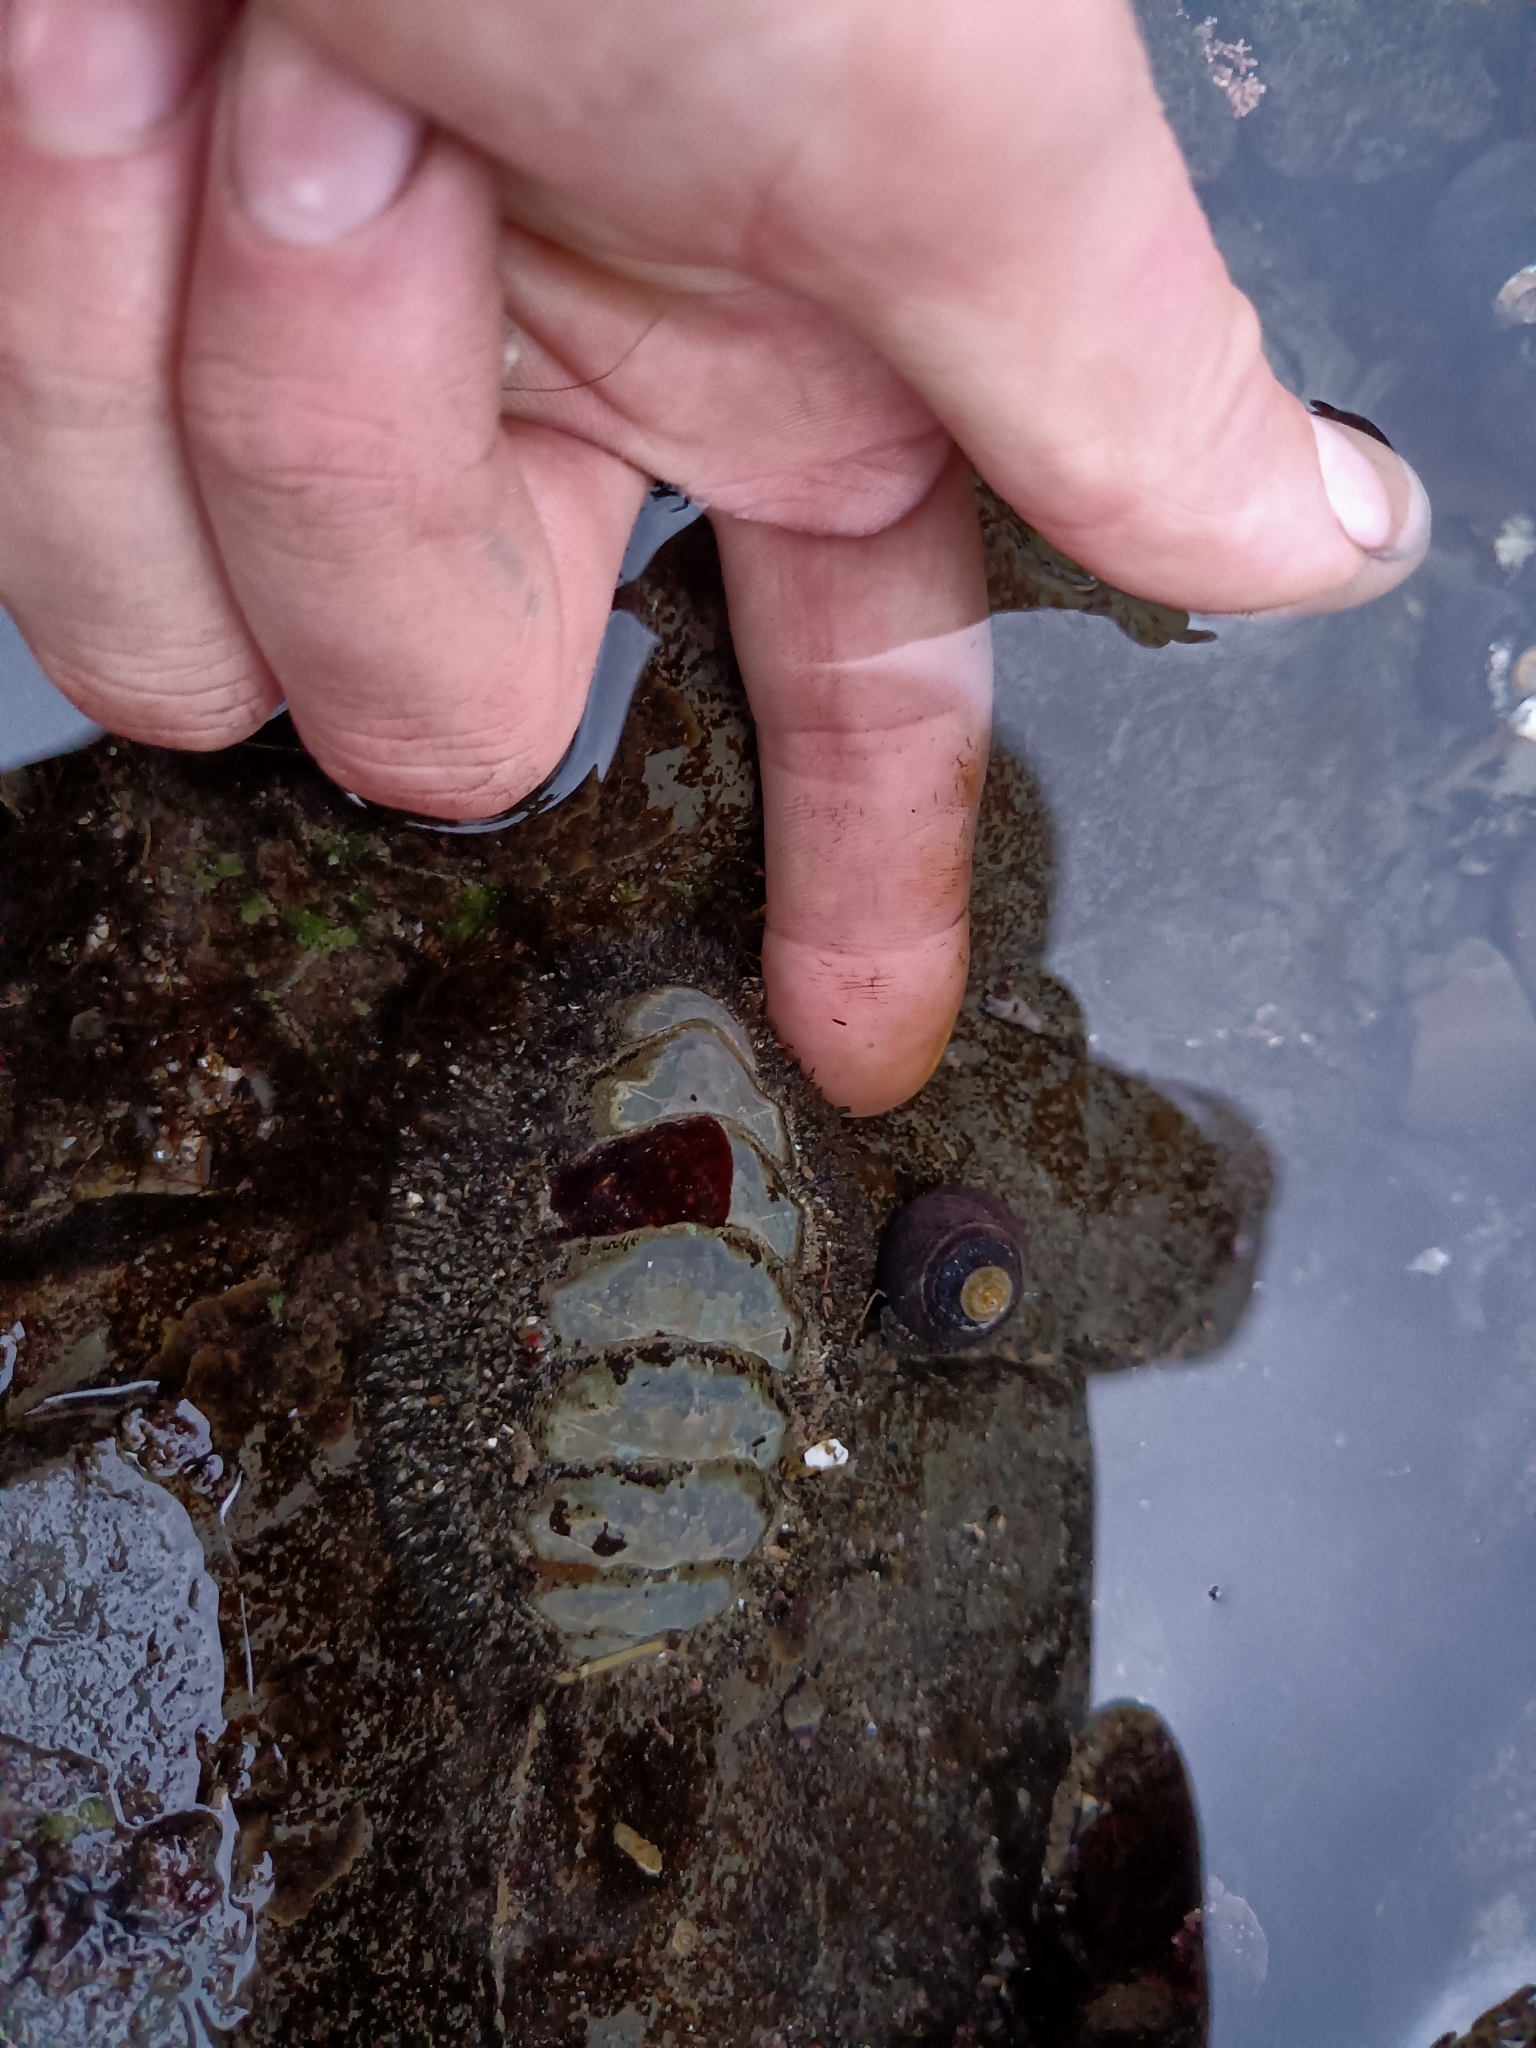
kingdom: Animalia
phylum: Mollusca
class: Polyplacophora
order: Chitonida
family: Mopaliidae
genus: Mopalia
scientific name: Mopalia muscosa
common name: Mossy chiton
